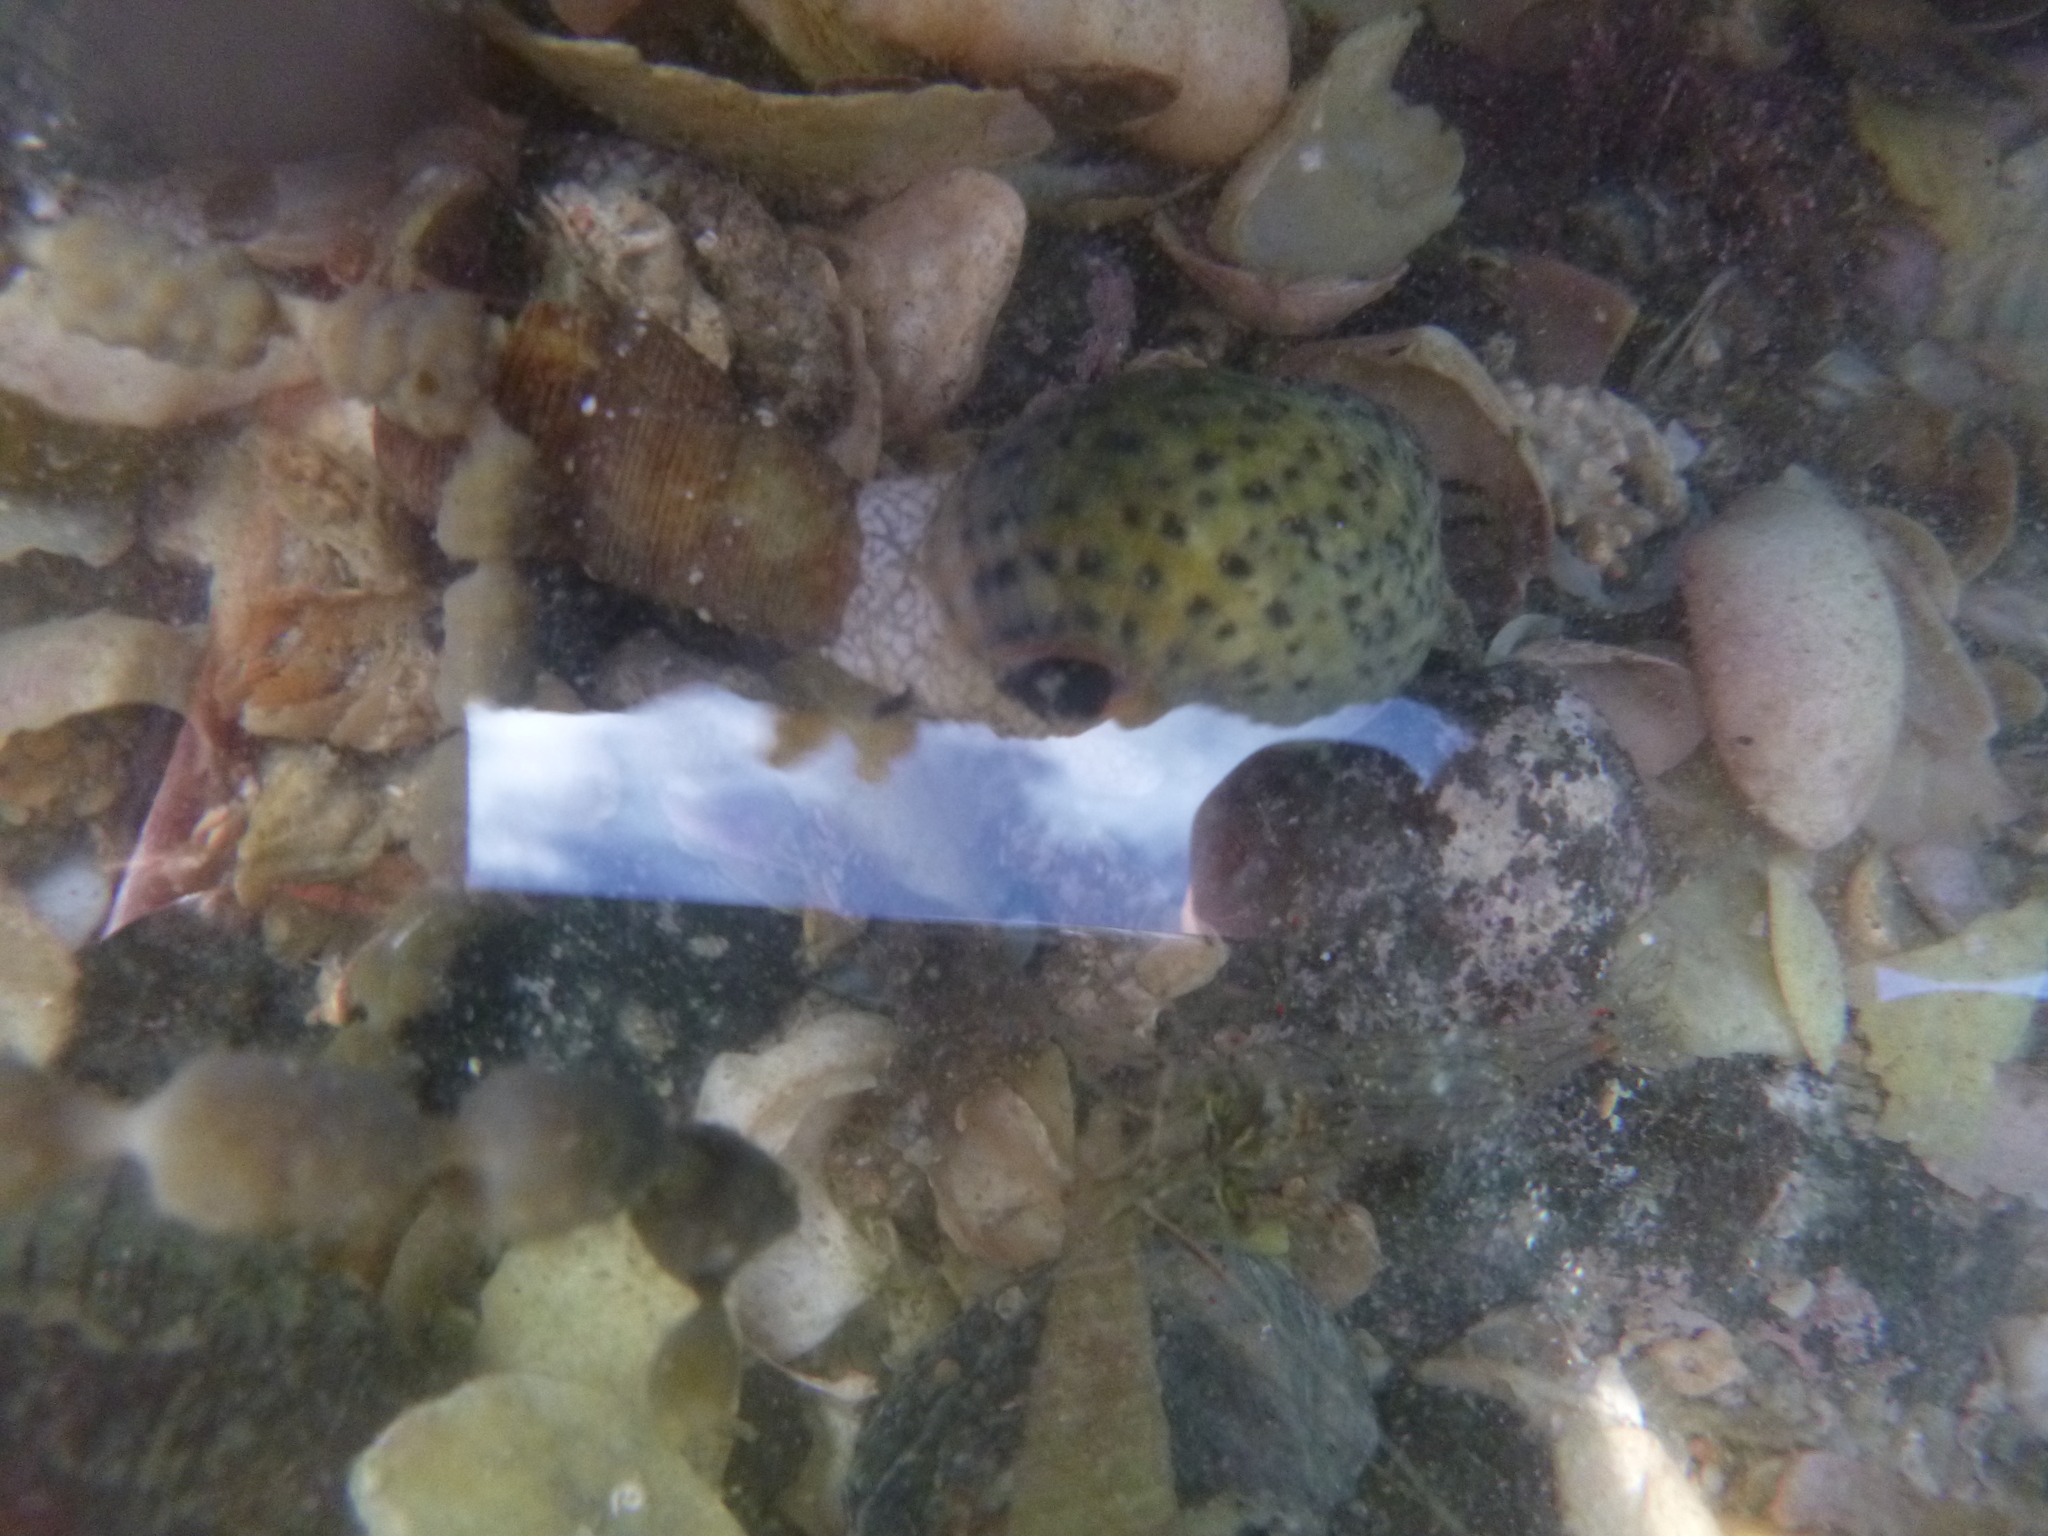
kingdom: Animalia
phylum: Mollusca
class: Gastropoda
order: Neogastropoda
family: Cominellidae
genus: Cominella
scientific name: Cominella maculosa
